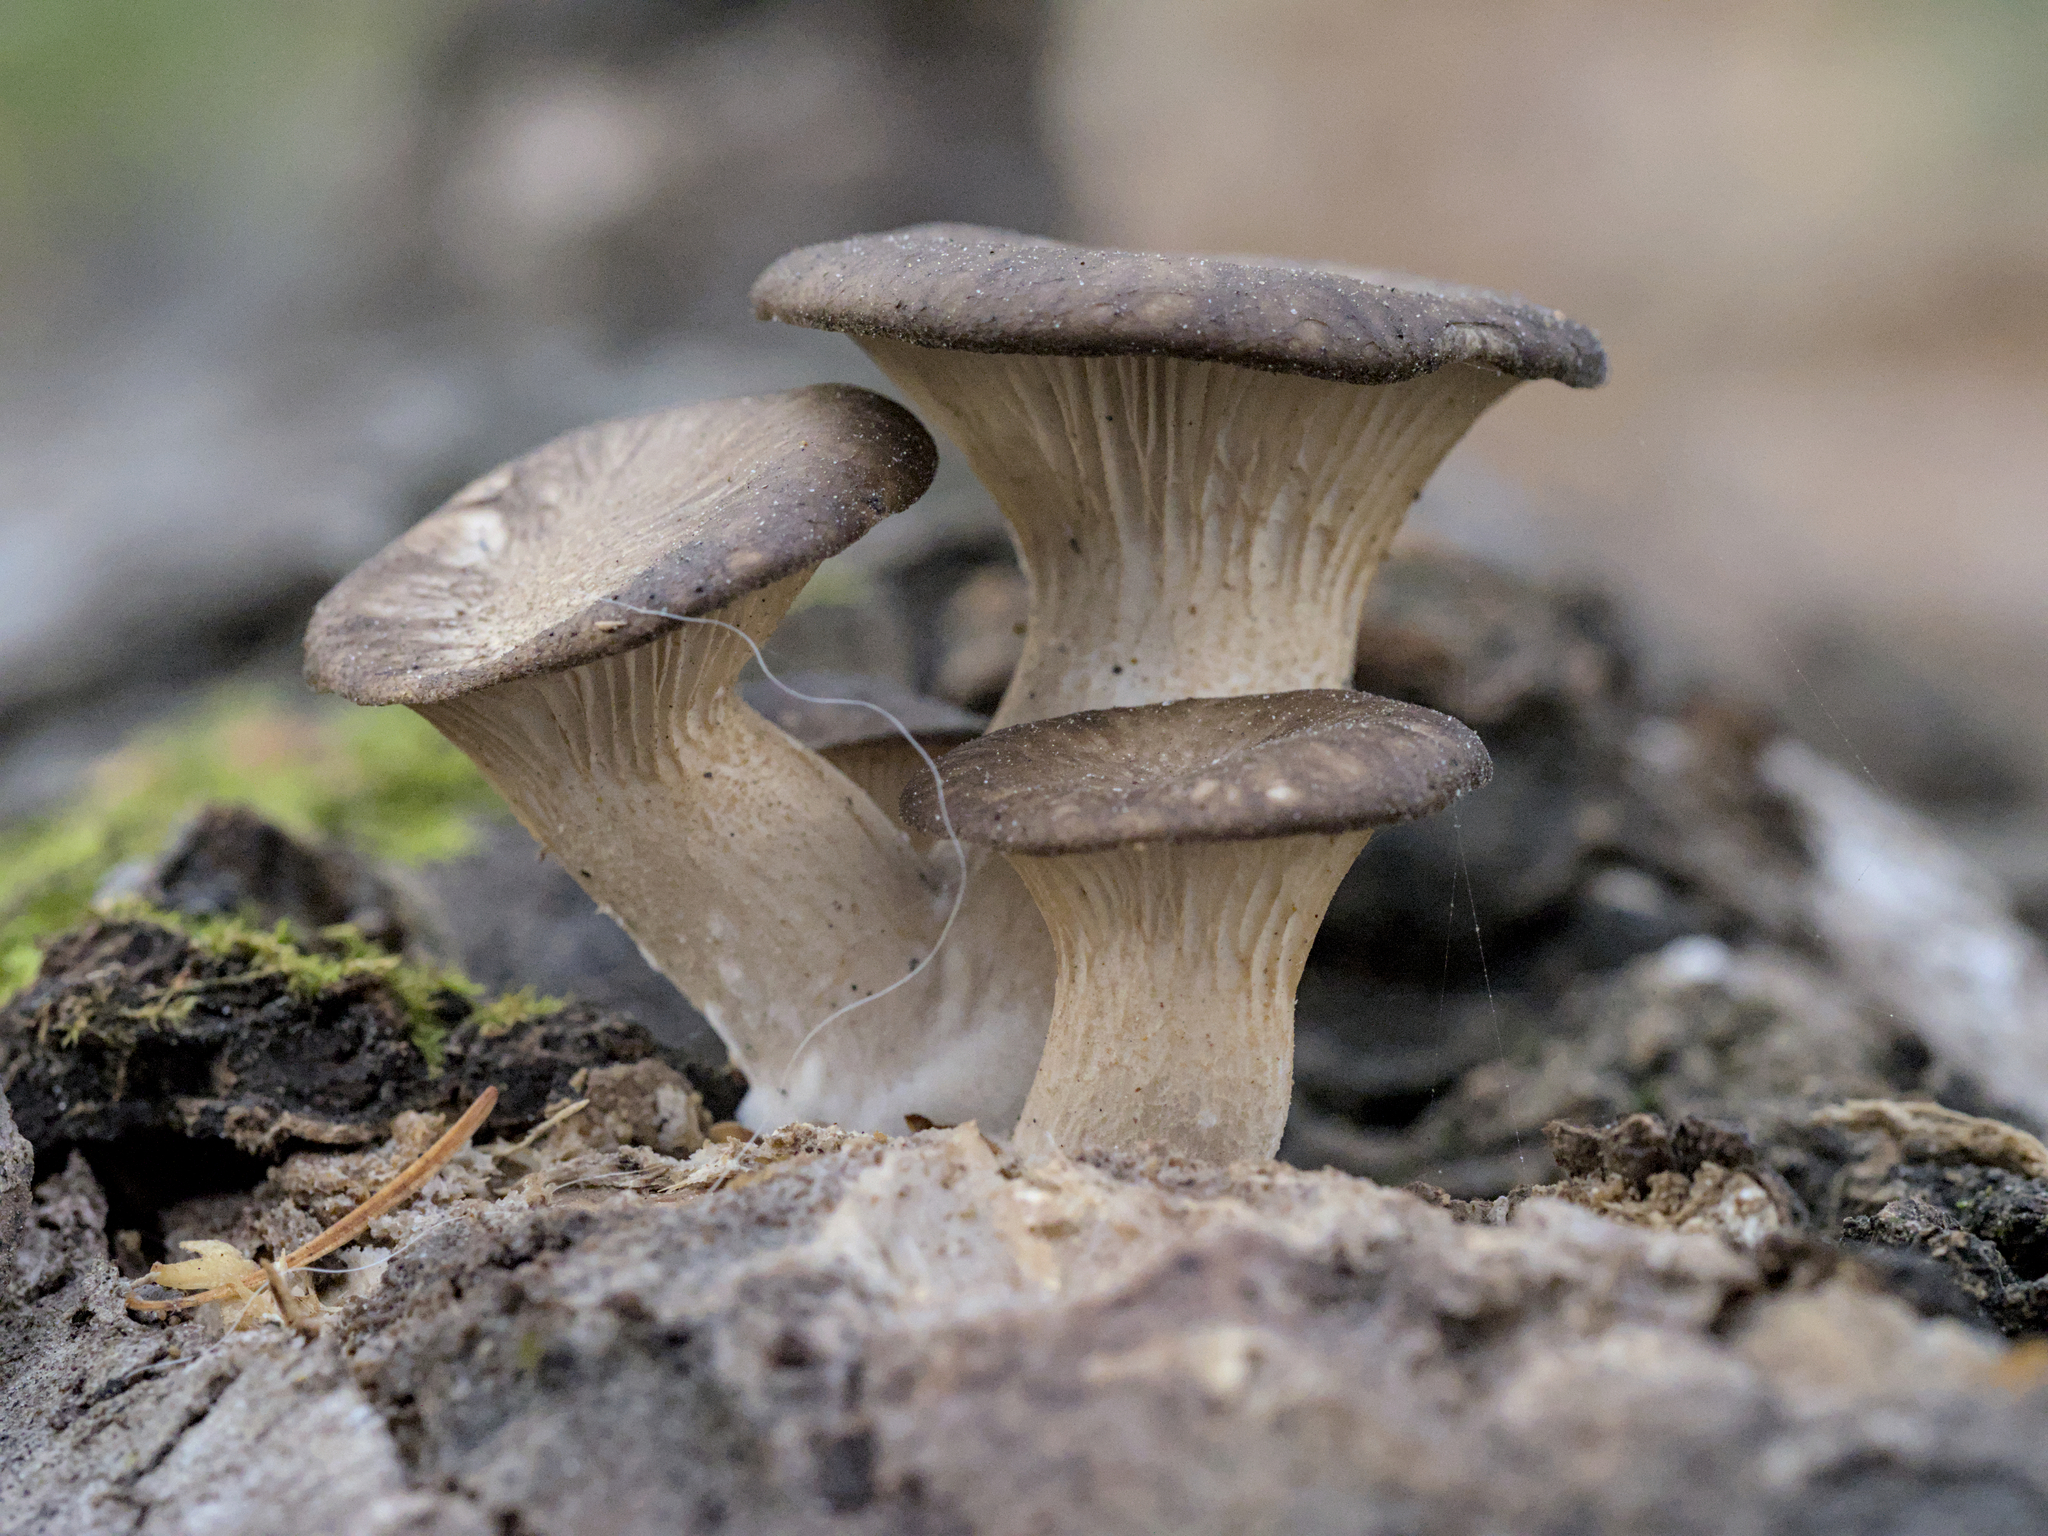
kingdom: Fungi
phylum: Basidiomycota
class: Agaricomycetes
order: Agaricales
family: Pleurotaceae
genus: Pleurotus
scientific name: Pleurotus ostreatus
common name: Oyster mushroom
